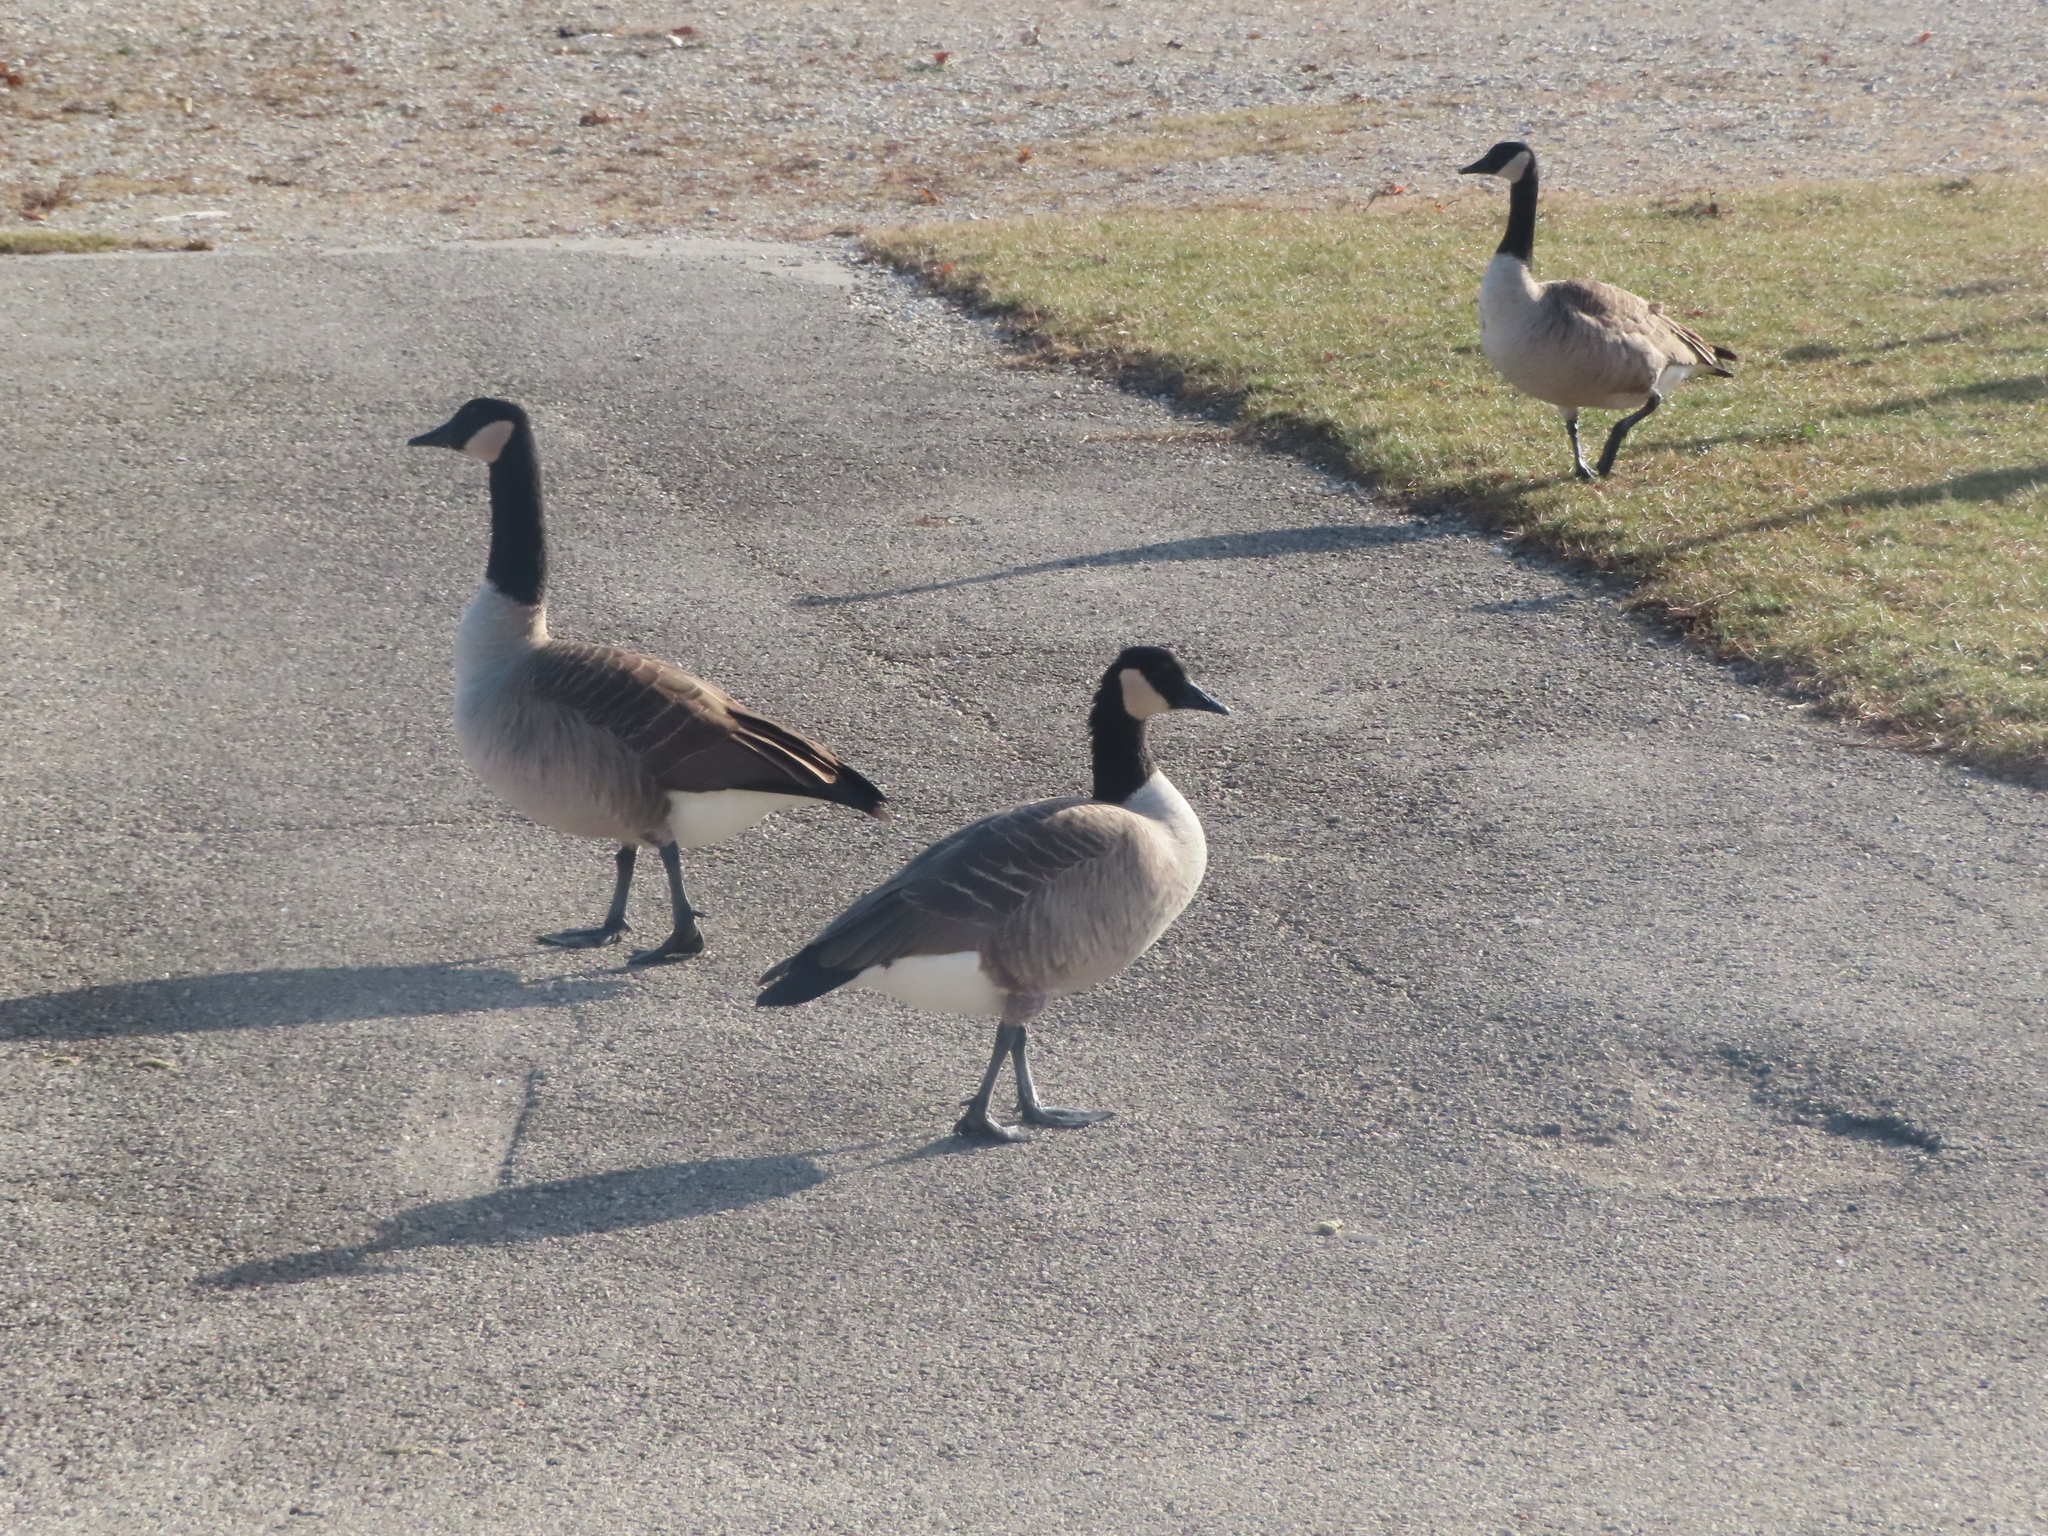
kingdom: Animalia
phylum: Chordata
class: Aves
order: Anseriformes
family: Anatidae
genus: Branta
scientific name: Branta canadensis
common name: Canada goose
